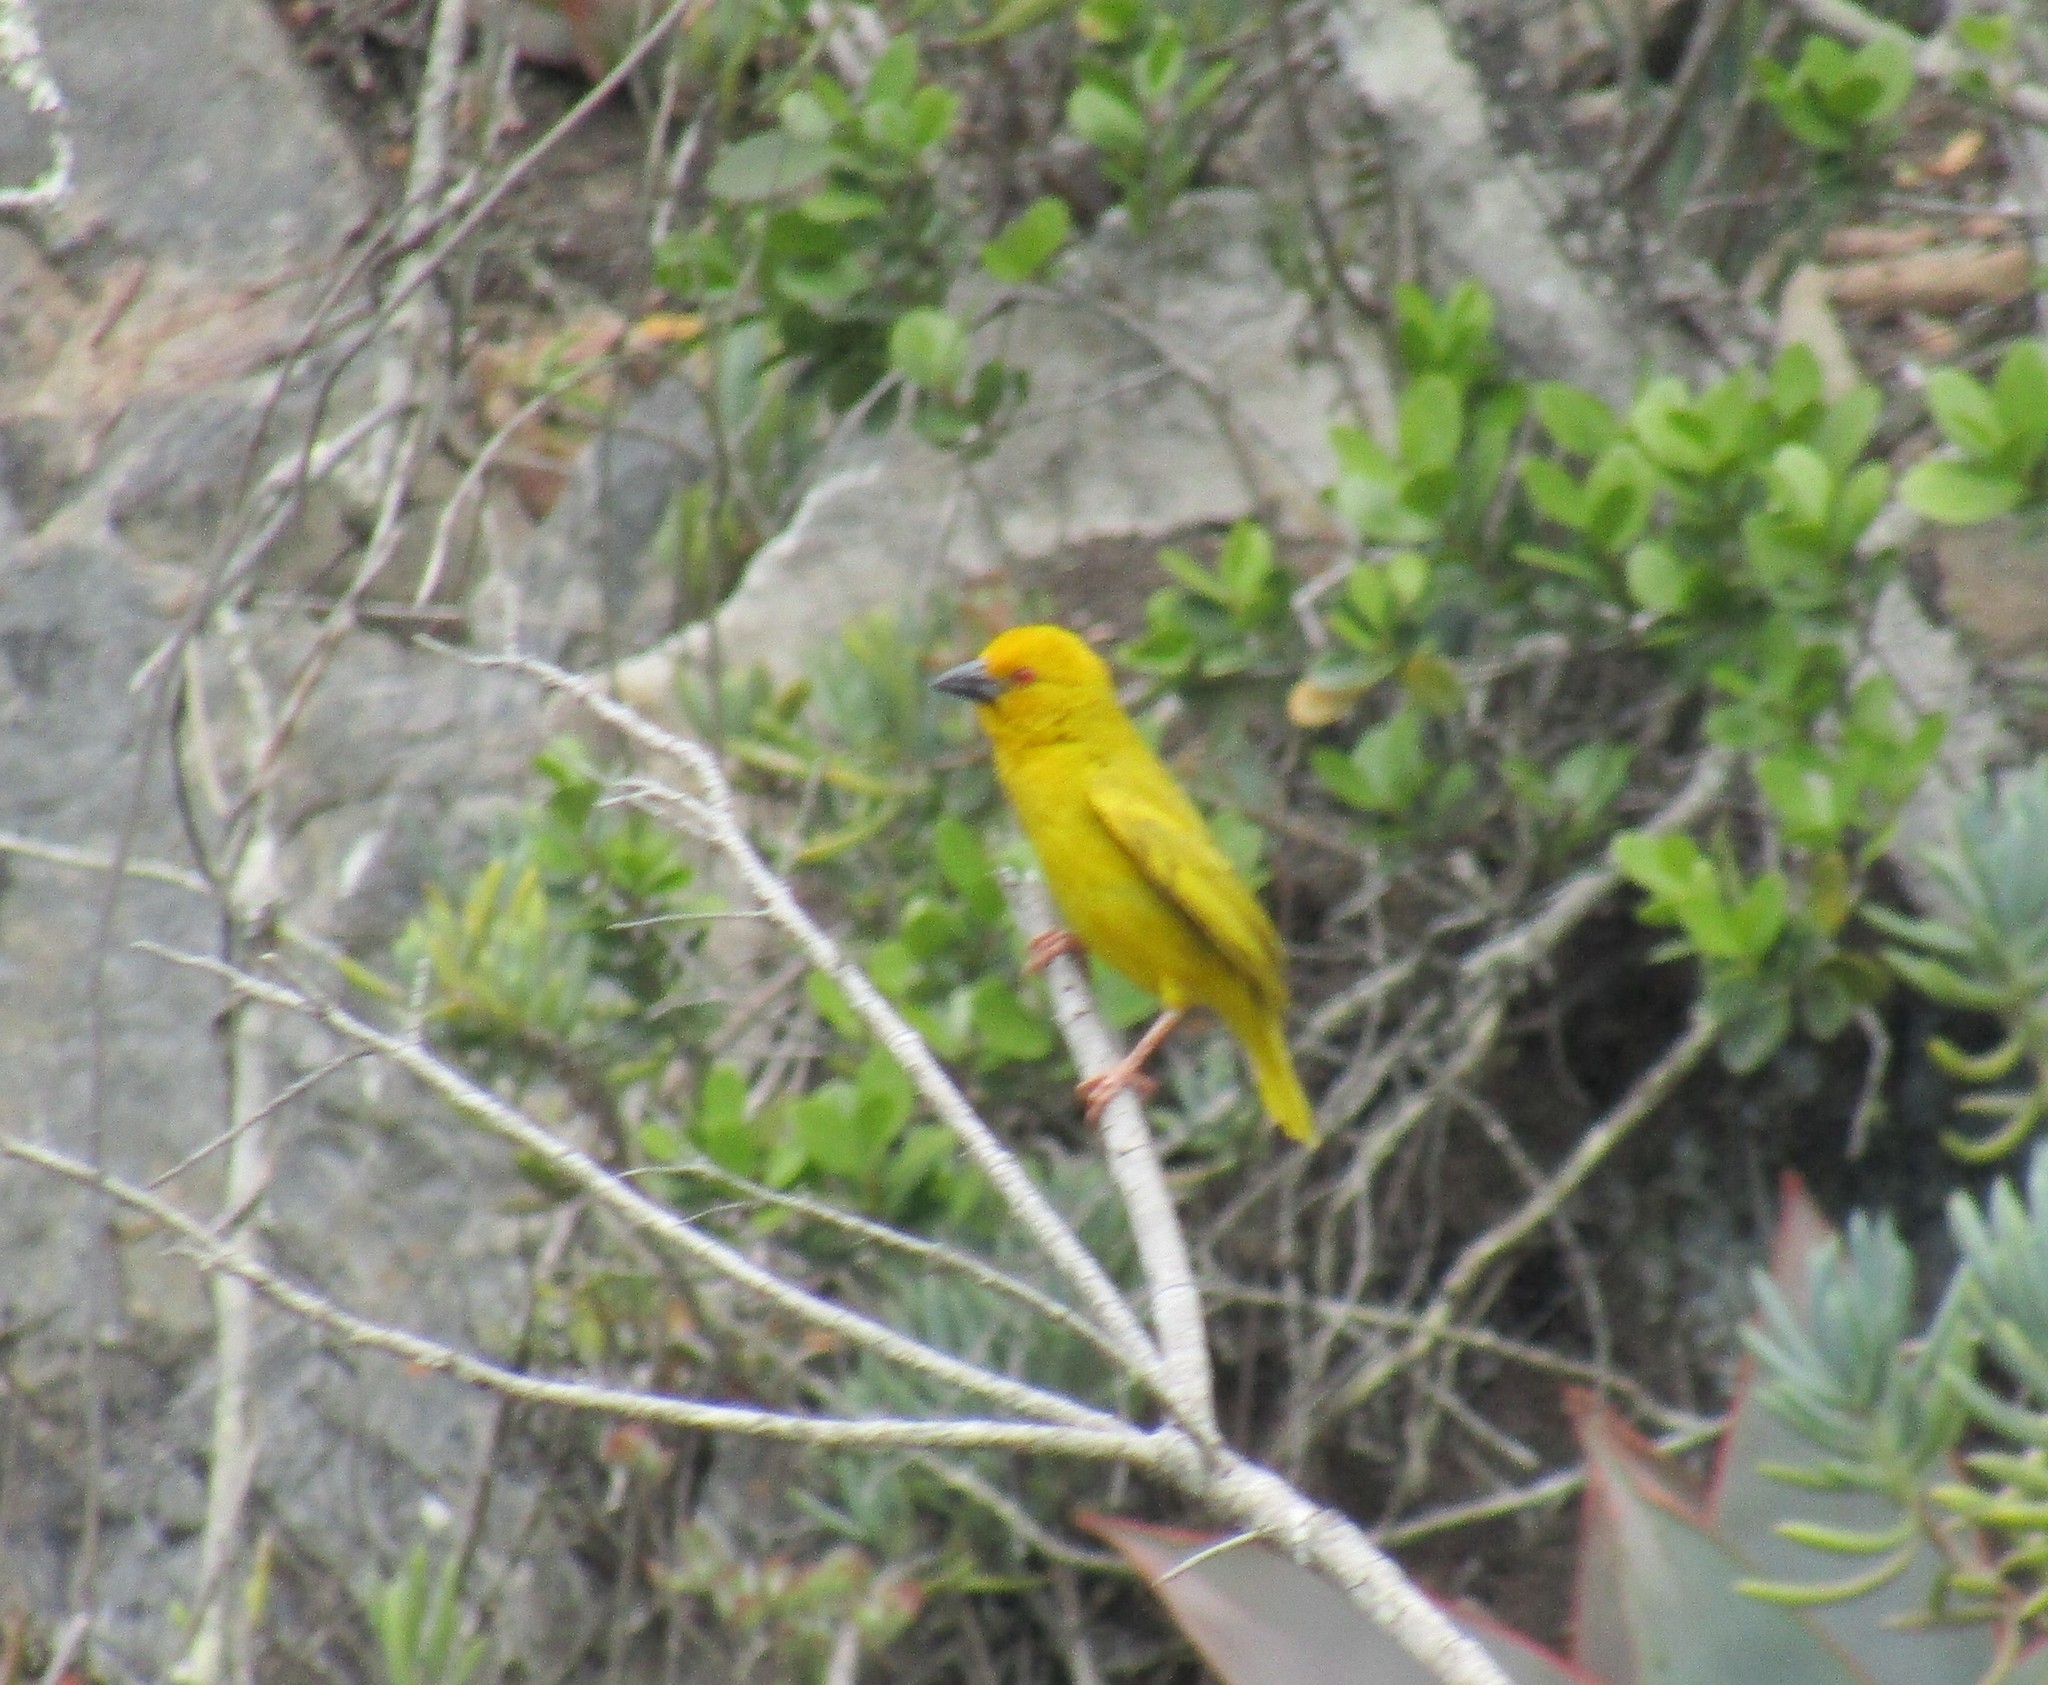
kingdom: Animalia
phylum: Chordata
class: Aves
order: Passeriformes
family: Ploceidae
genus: Ploceus
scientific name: Ploceus subaureus
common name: Yellow weaver
